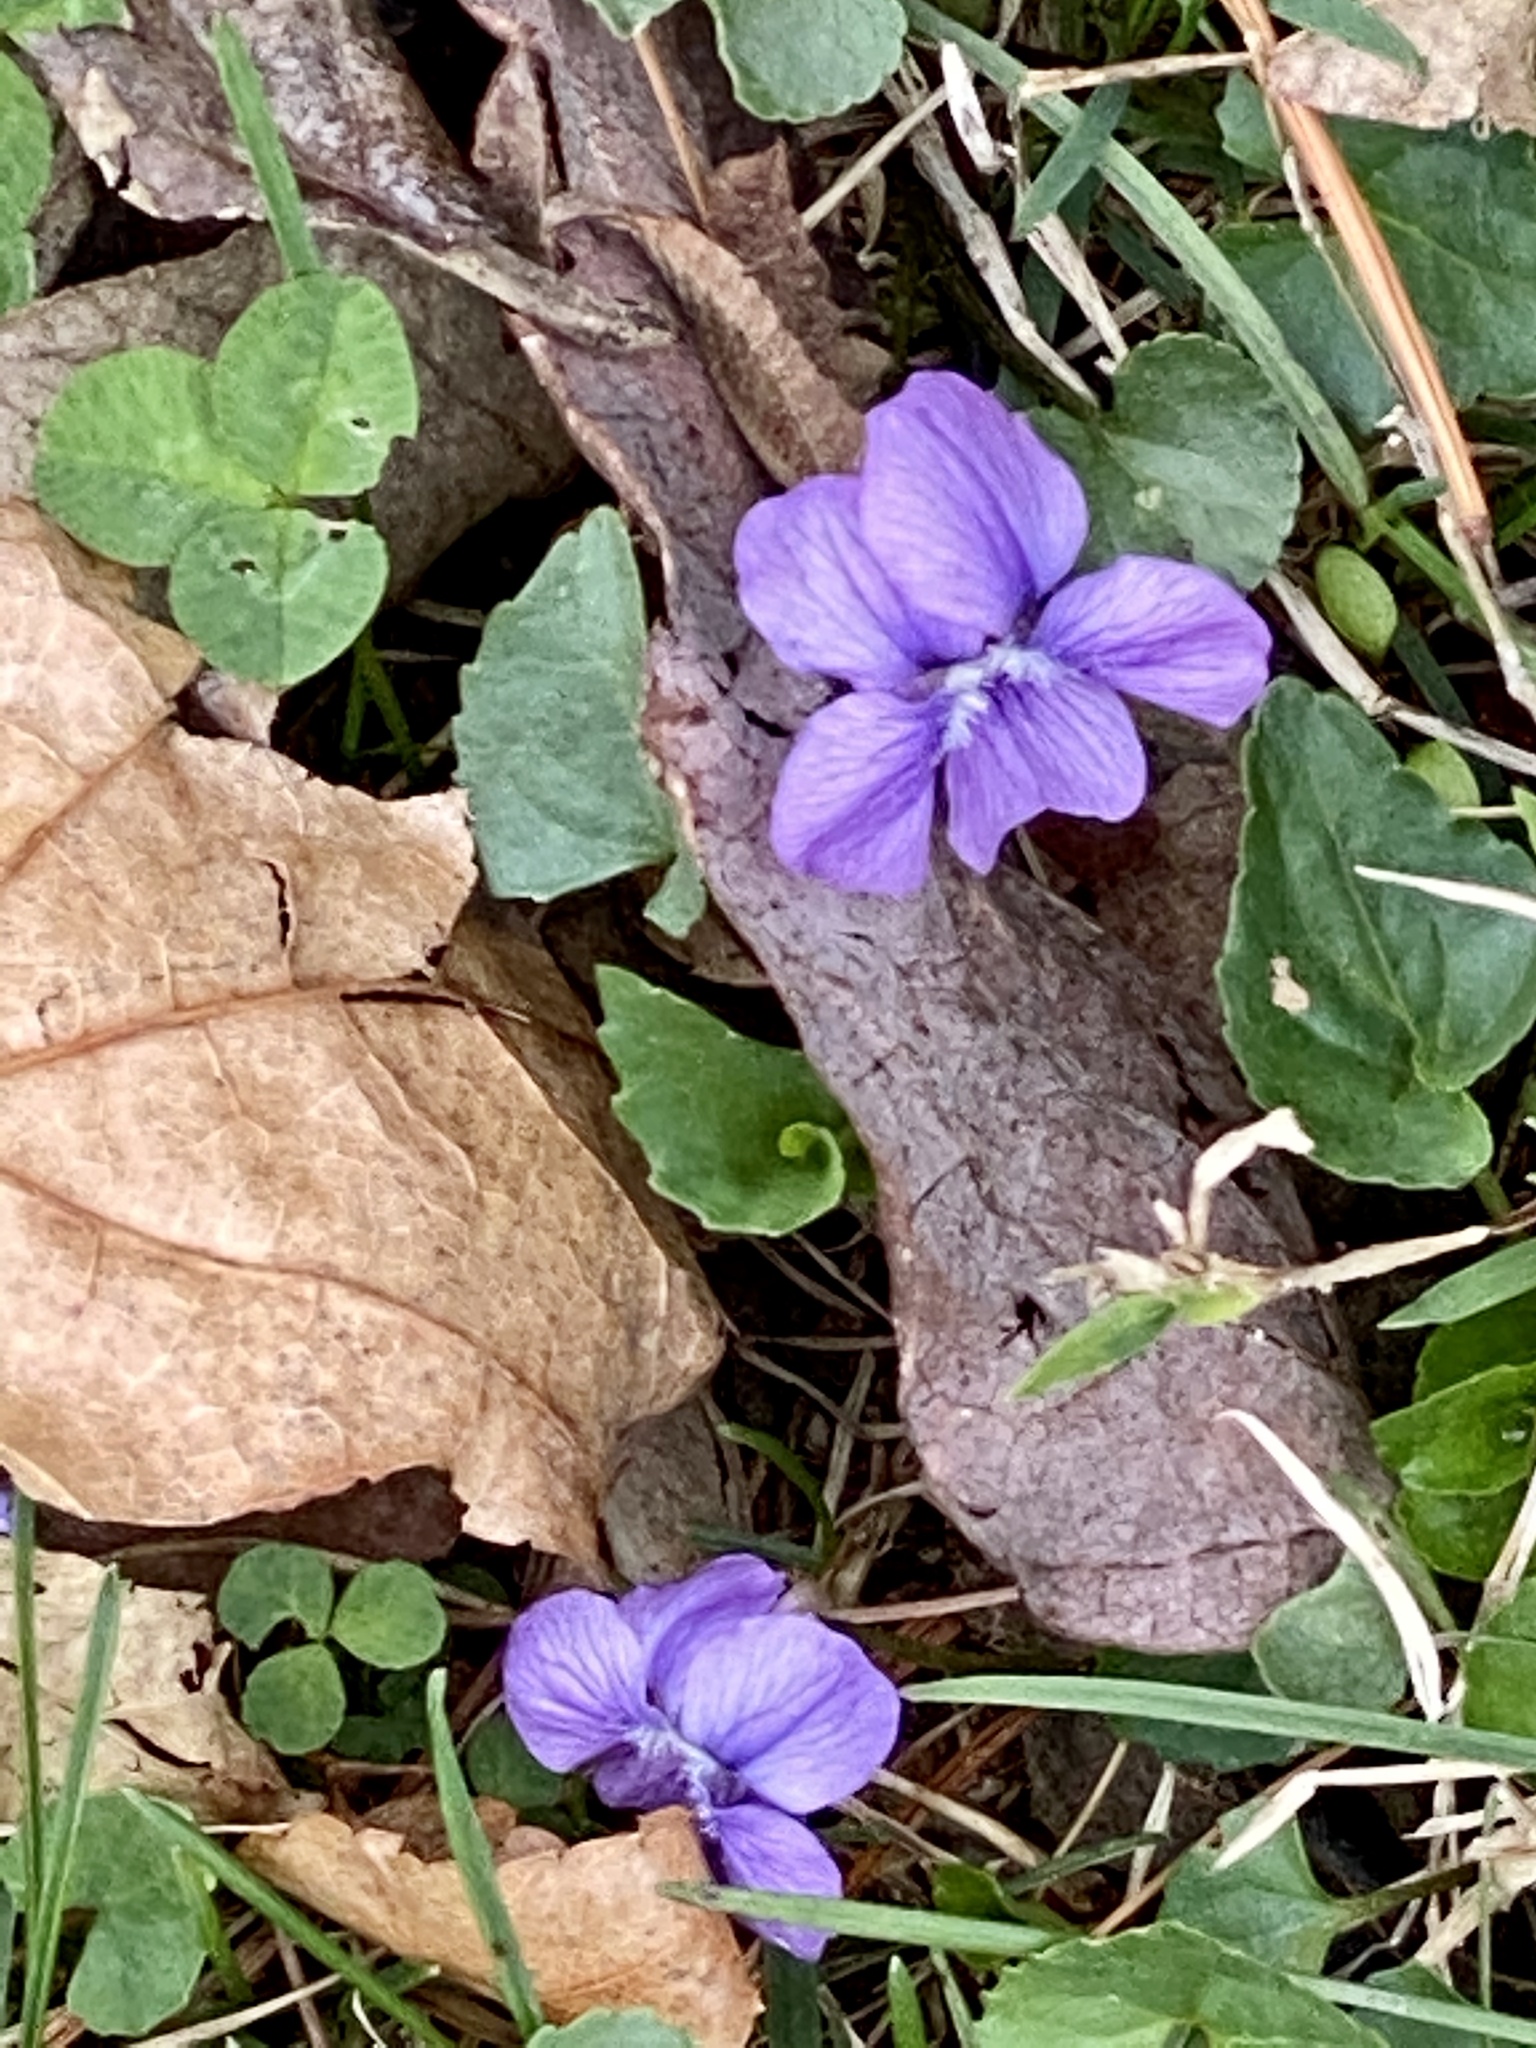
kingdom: Plantae
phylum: Tracheophyta
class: Magnoliopsida
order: Malpighiales
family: Violaceae
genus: Viola
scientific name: Viola sororia
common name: Dooryard violet
